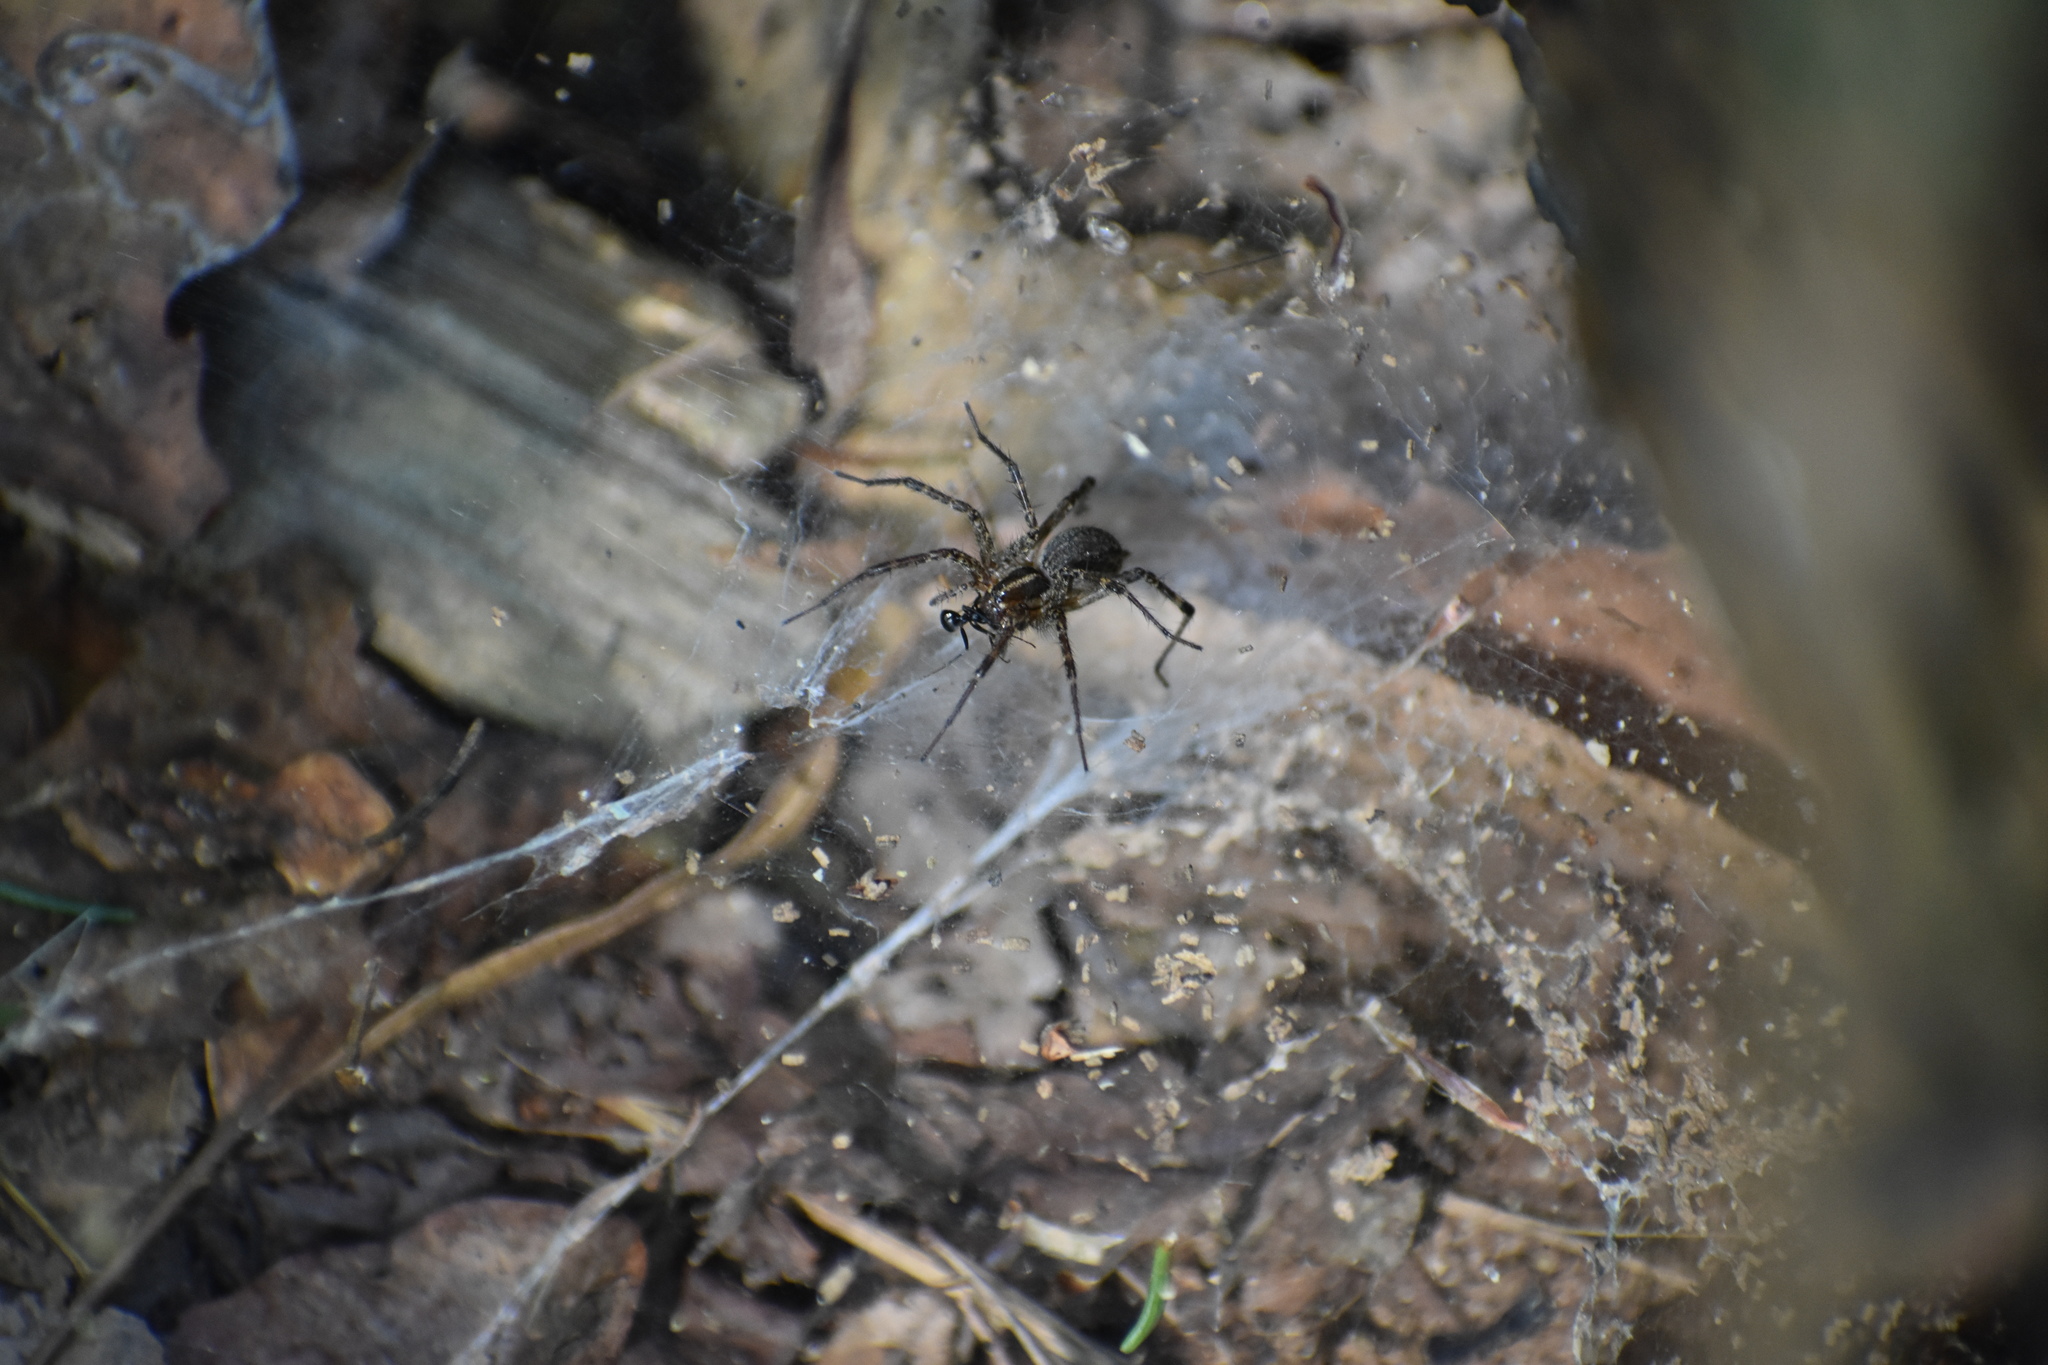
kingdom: Animalia
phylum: Arthropoda
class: Arachnida
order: Araneae
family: Agelenidae
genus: Agelenopsis
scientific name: Agelenopsis
